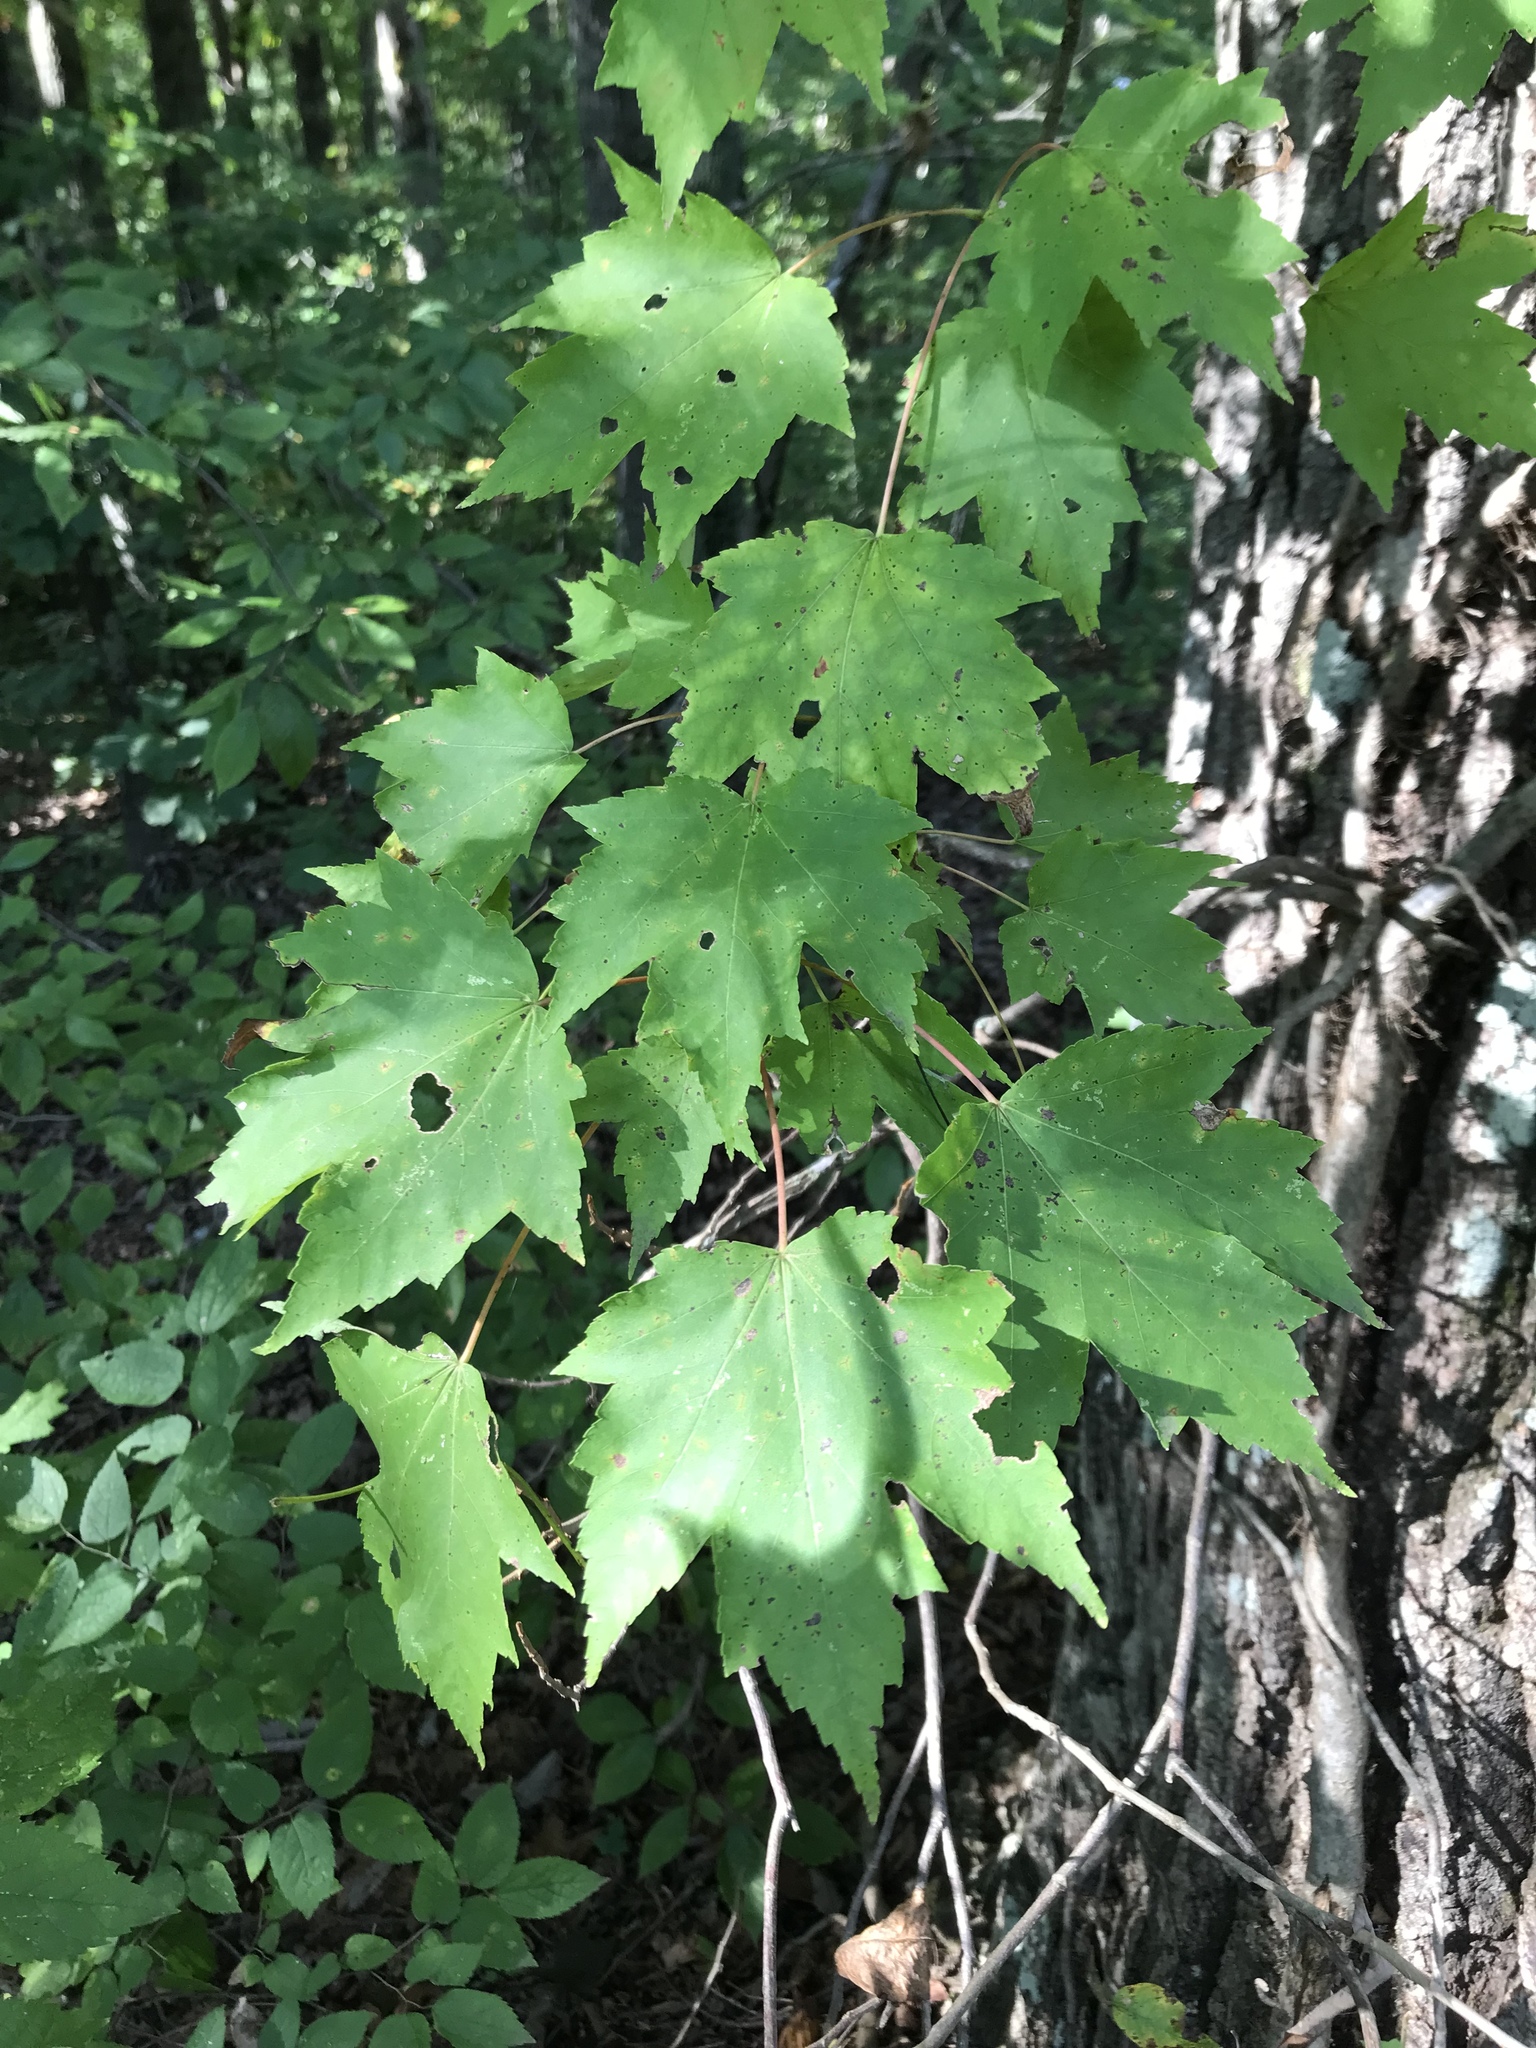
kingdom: Plantae
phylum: Tracheophyta
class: Magnoliopsida
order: Sapindales
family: Sapindaceae
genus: Acer
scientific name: Acer rubrum
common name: Red maple
